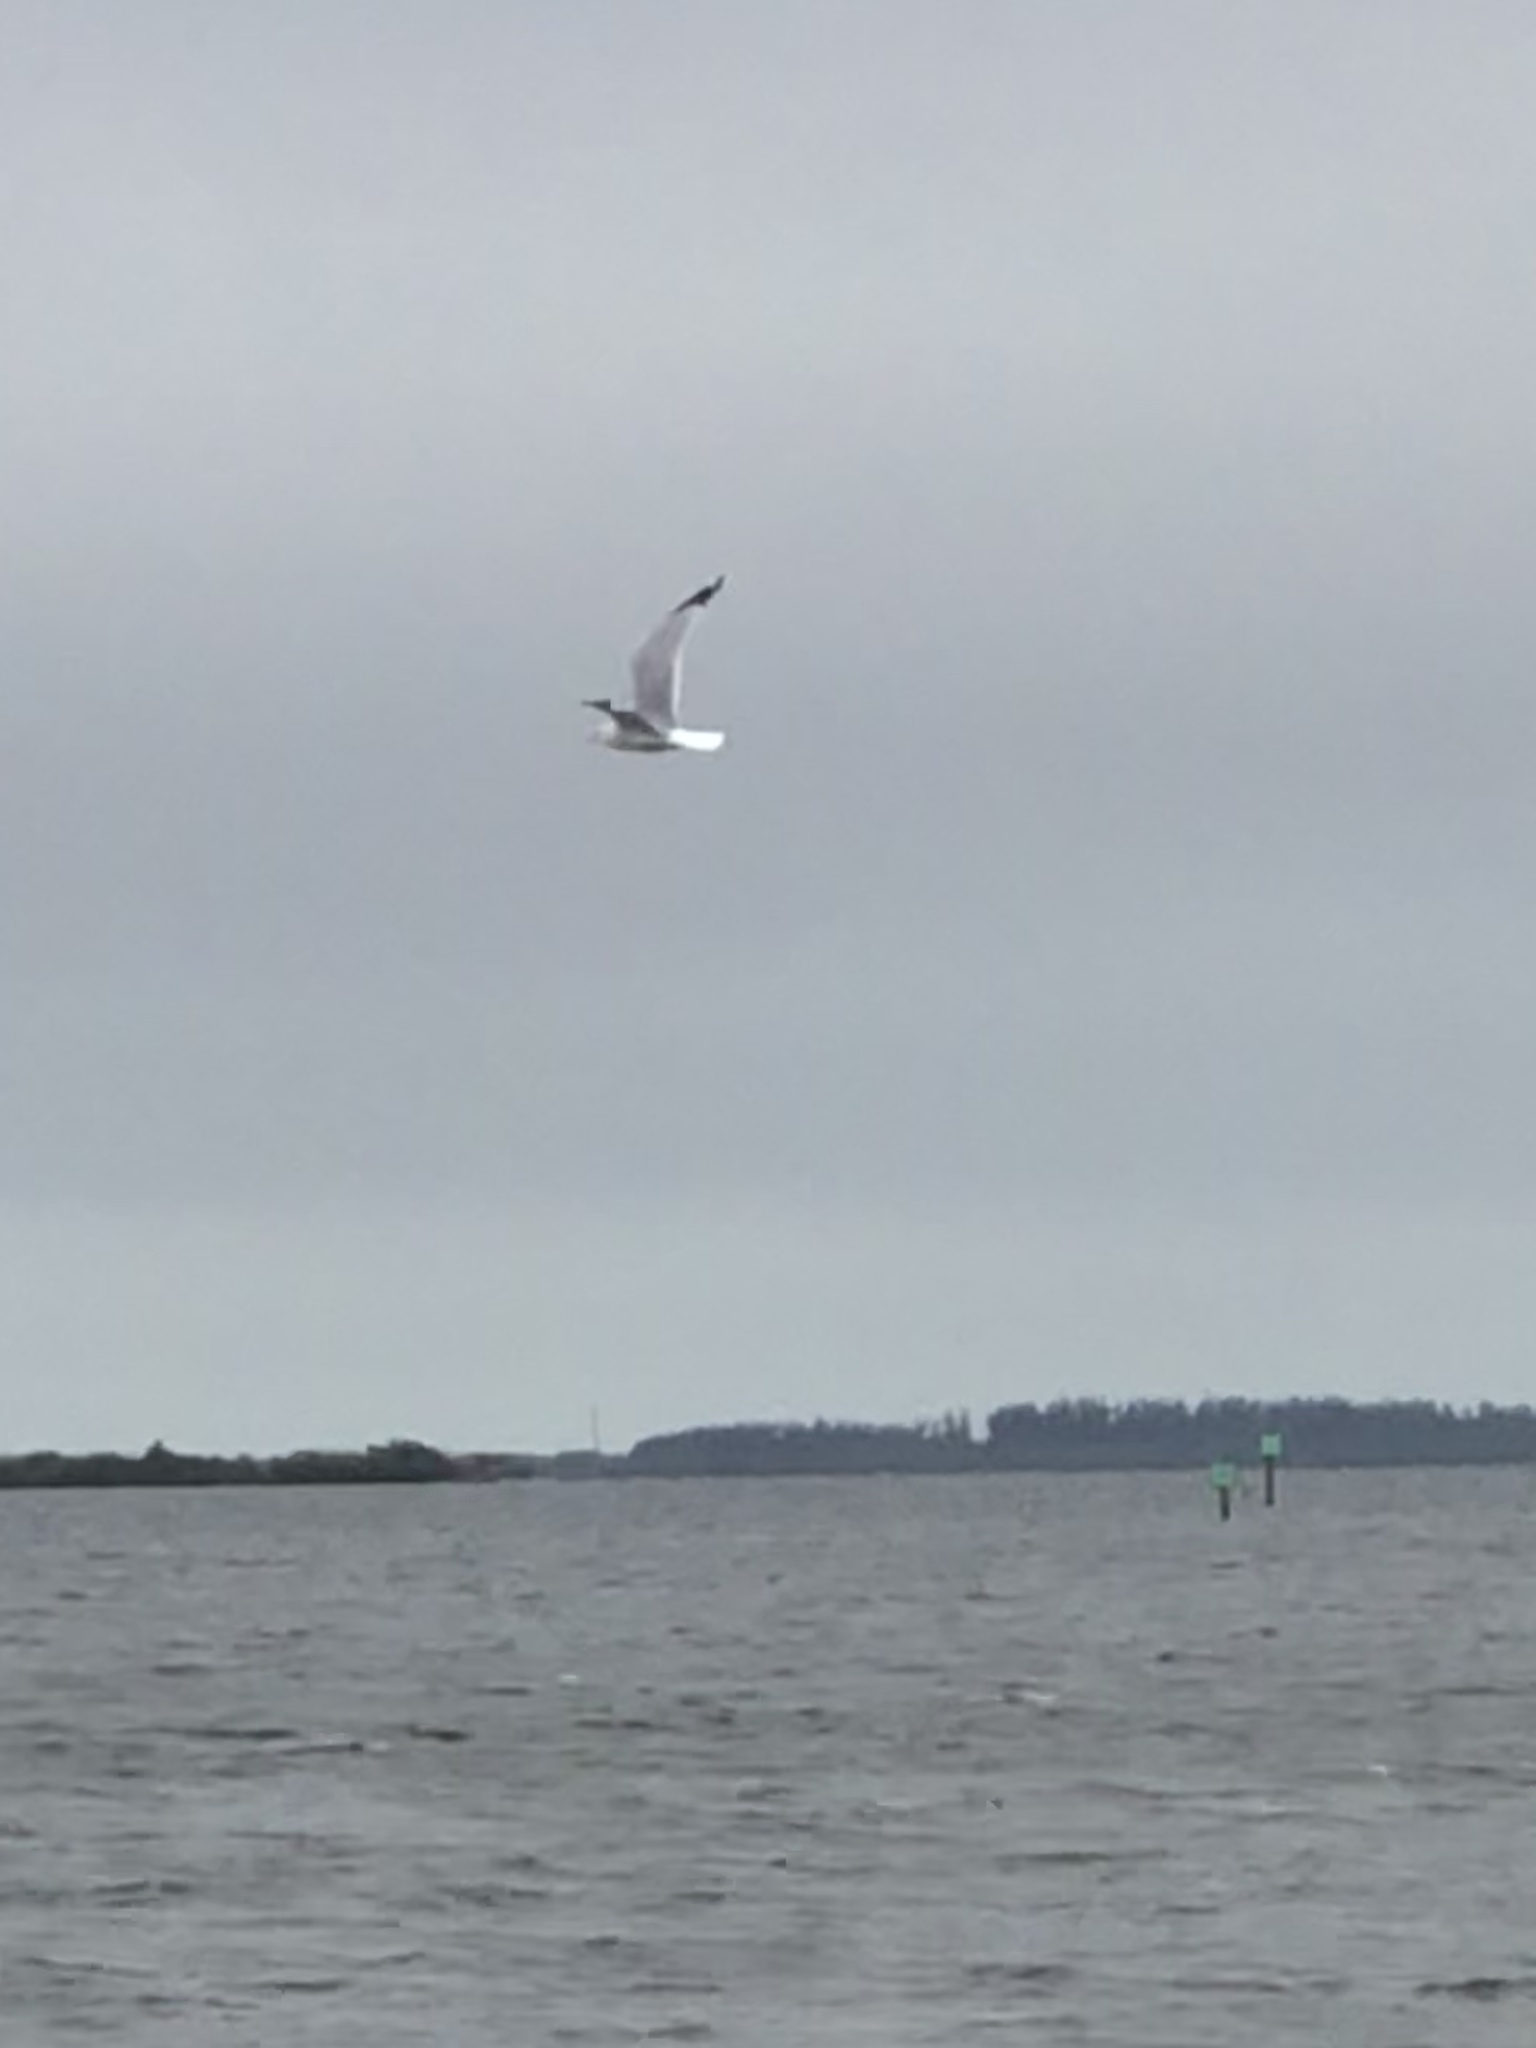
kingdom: Animalia
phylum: Chordata
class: Aves
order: Charadriiformes
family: Laridae
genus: Larus
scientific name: Larus
